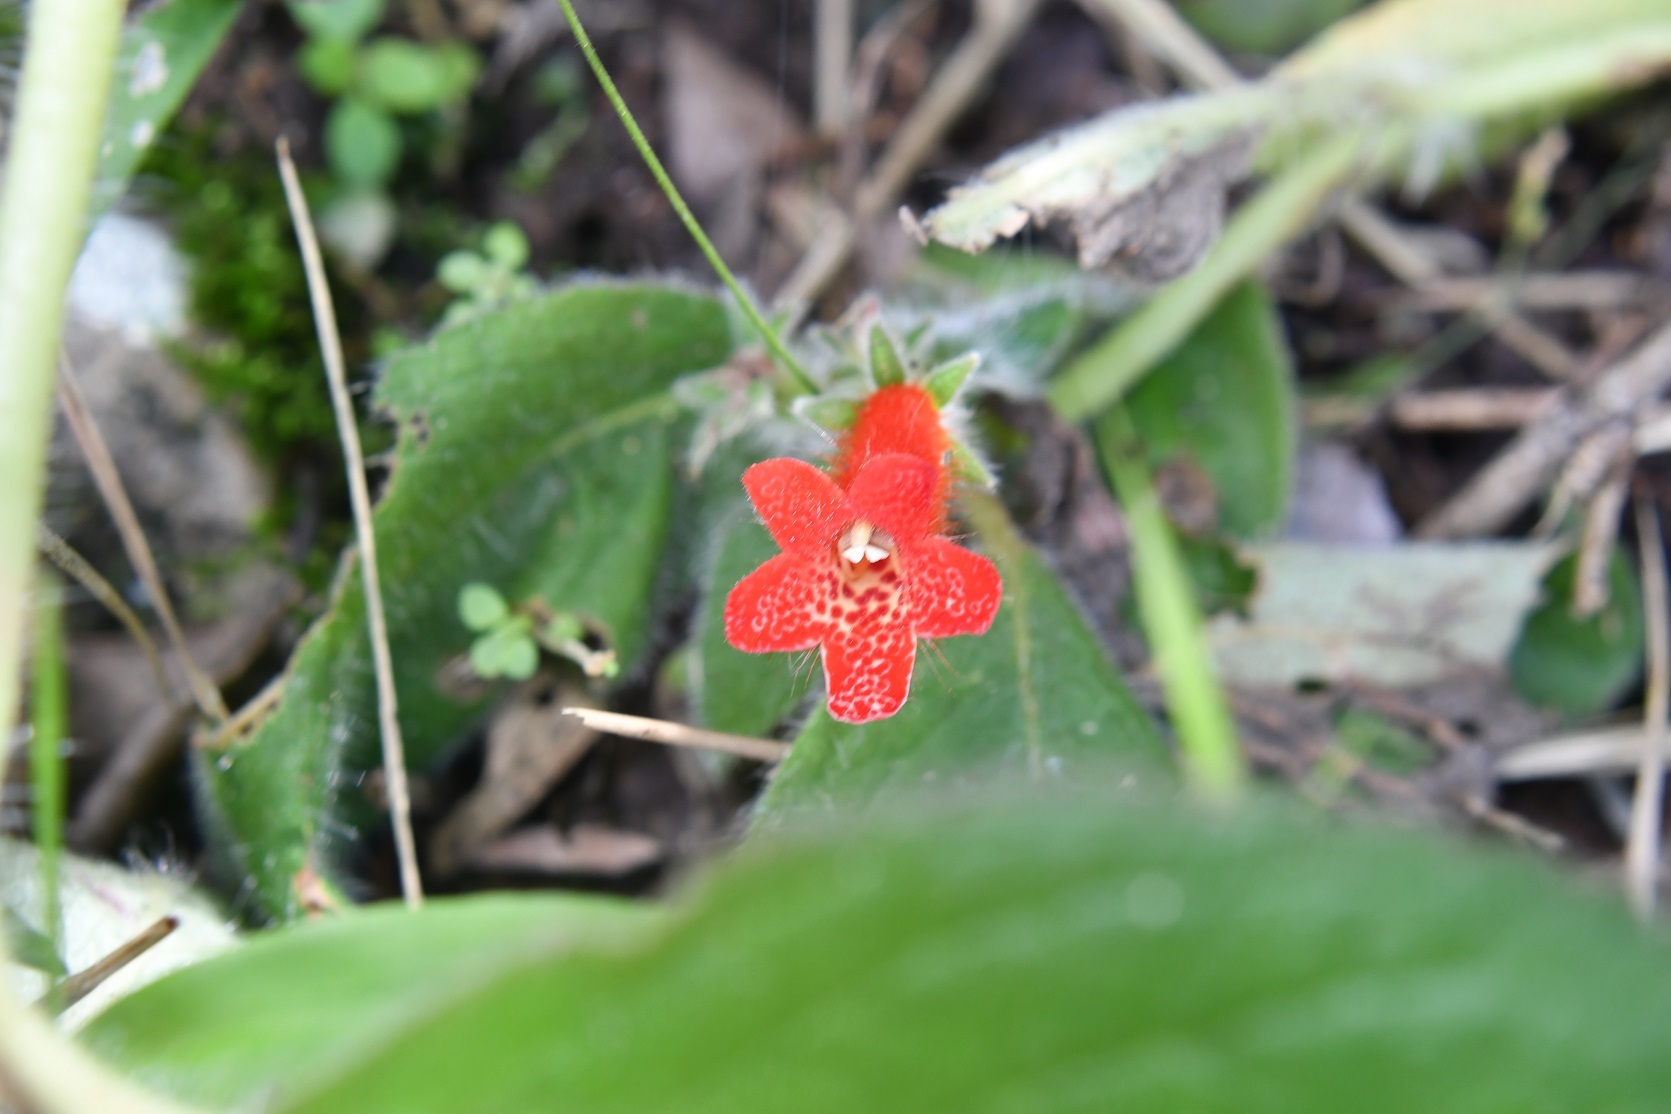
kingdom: Plantae
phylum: Tracheophyta
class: Magnoliopsida
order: Lamiales
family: Gesneriaceae
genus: Kohleria
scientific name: Kohleria rugata
